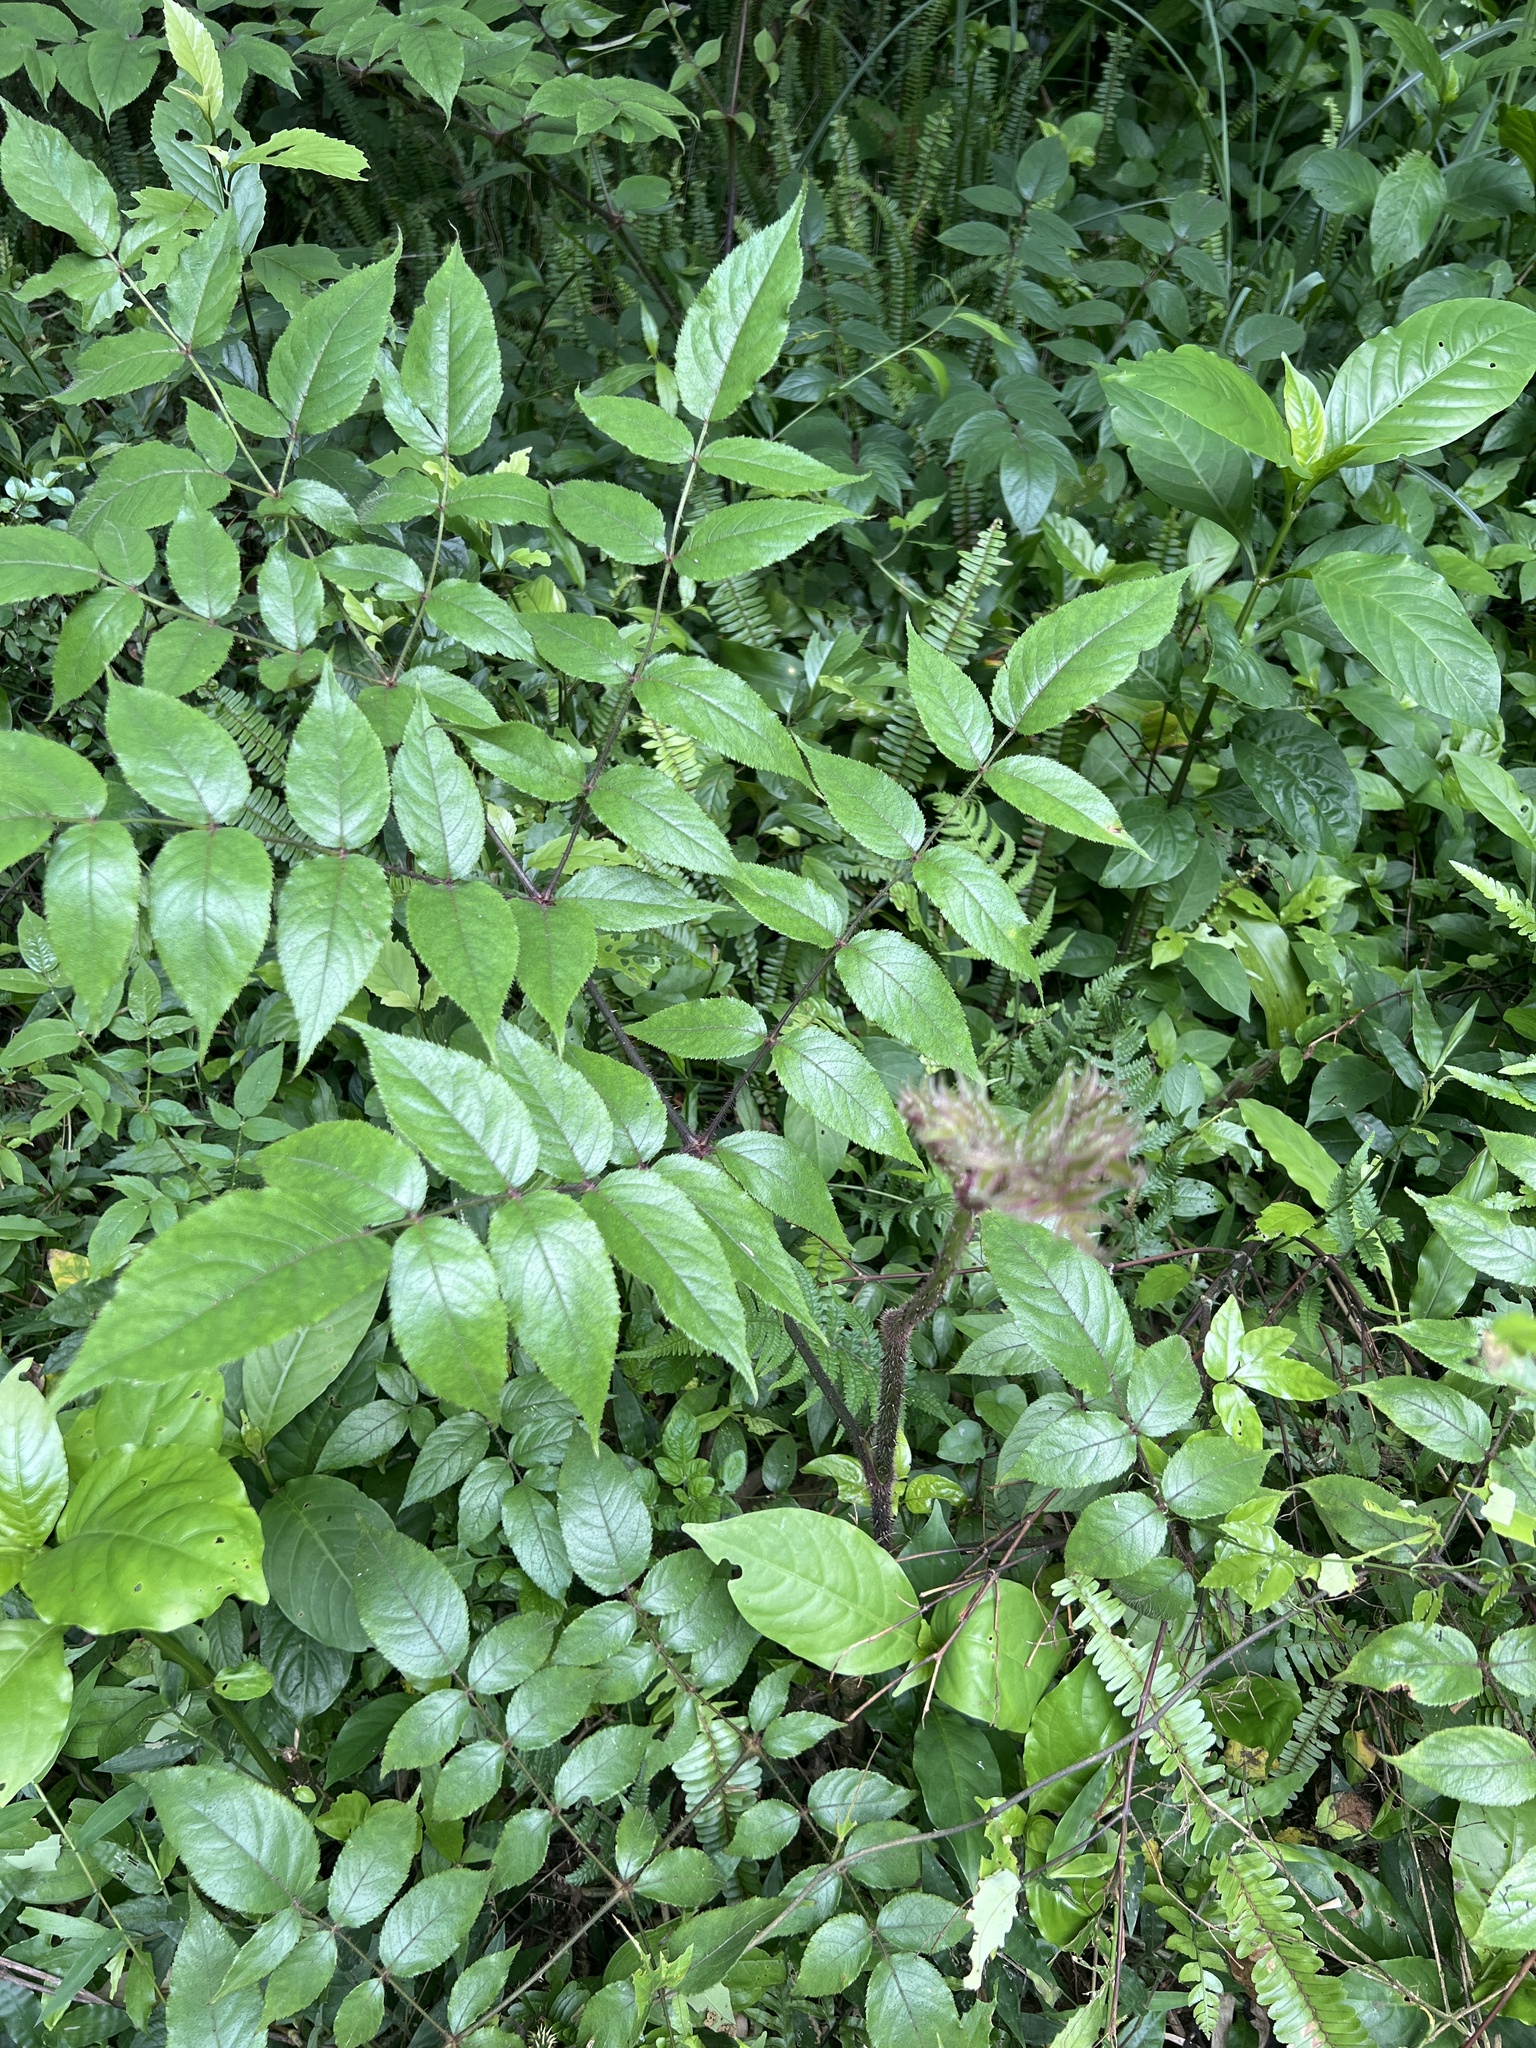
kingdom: Plantae
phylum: Tracheophyta
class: Magnoliopsida
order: Apiales
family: Araliaceae
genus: Aralia
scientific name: Aralia armata
